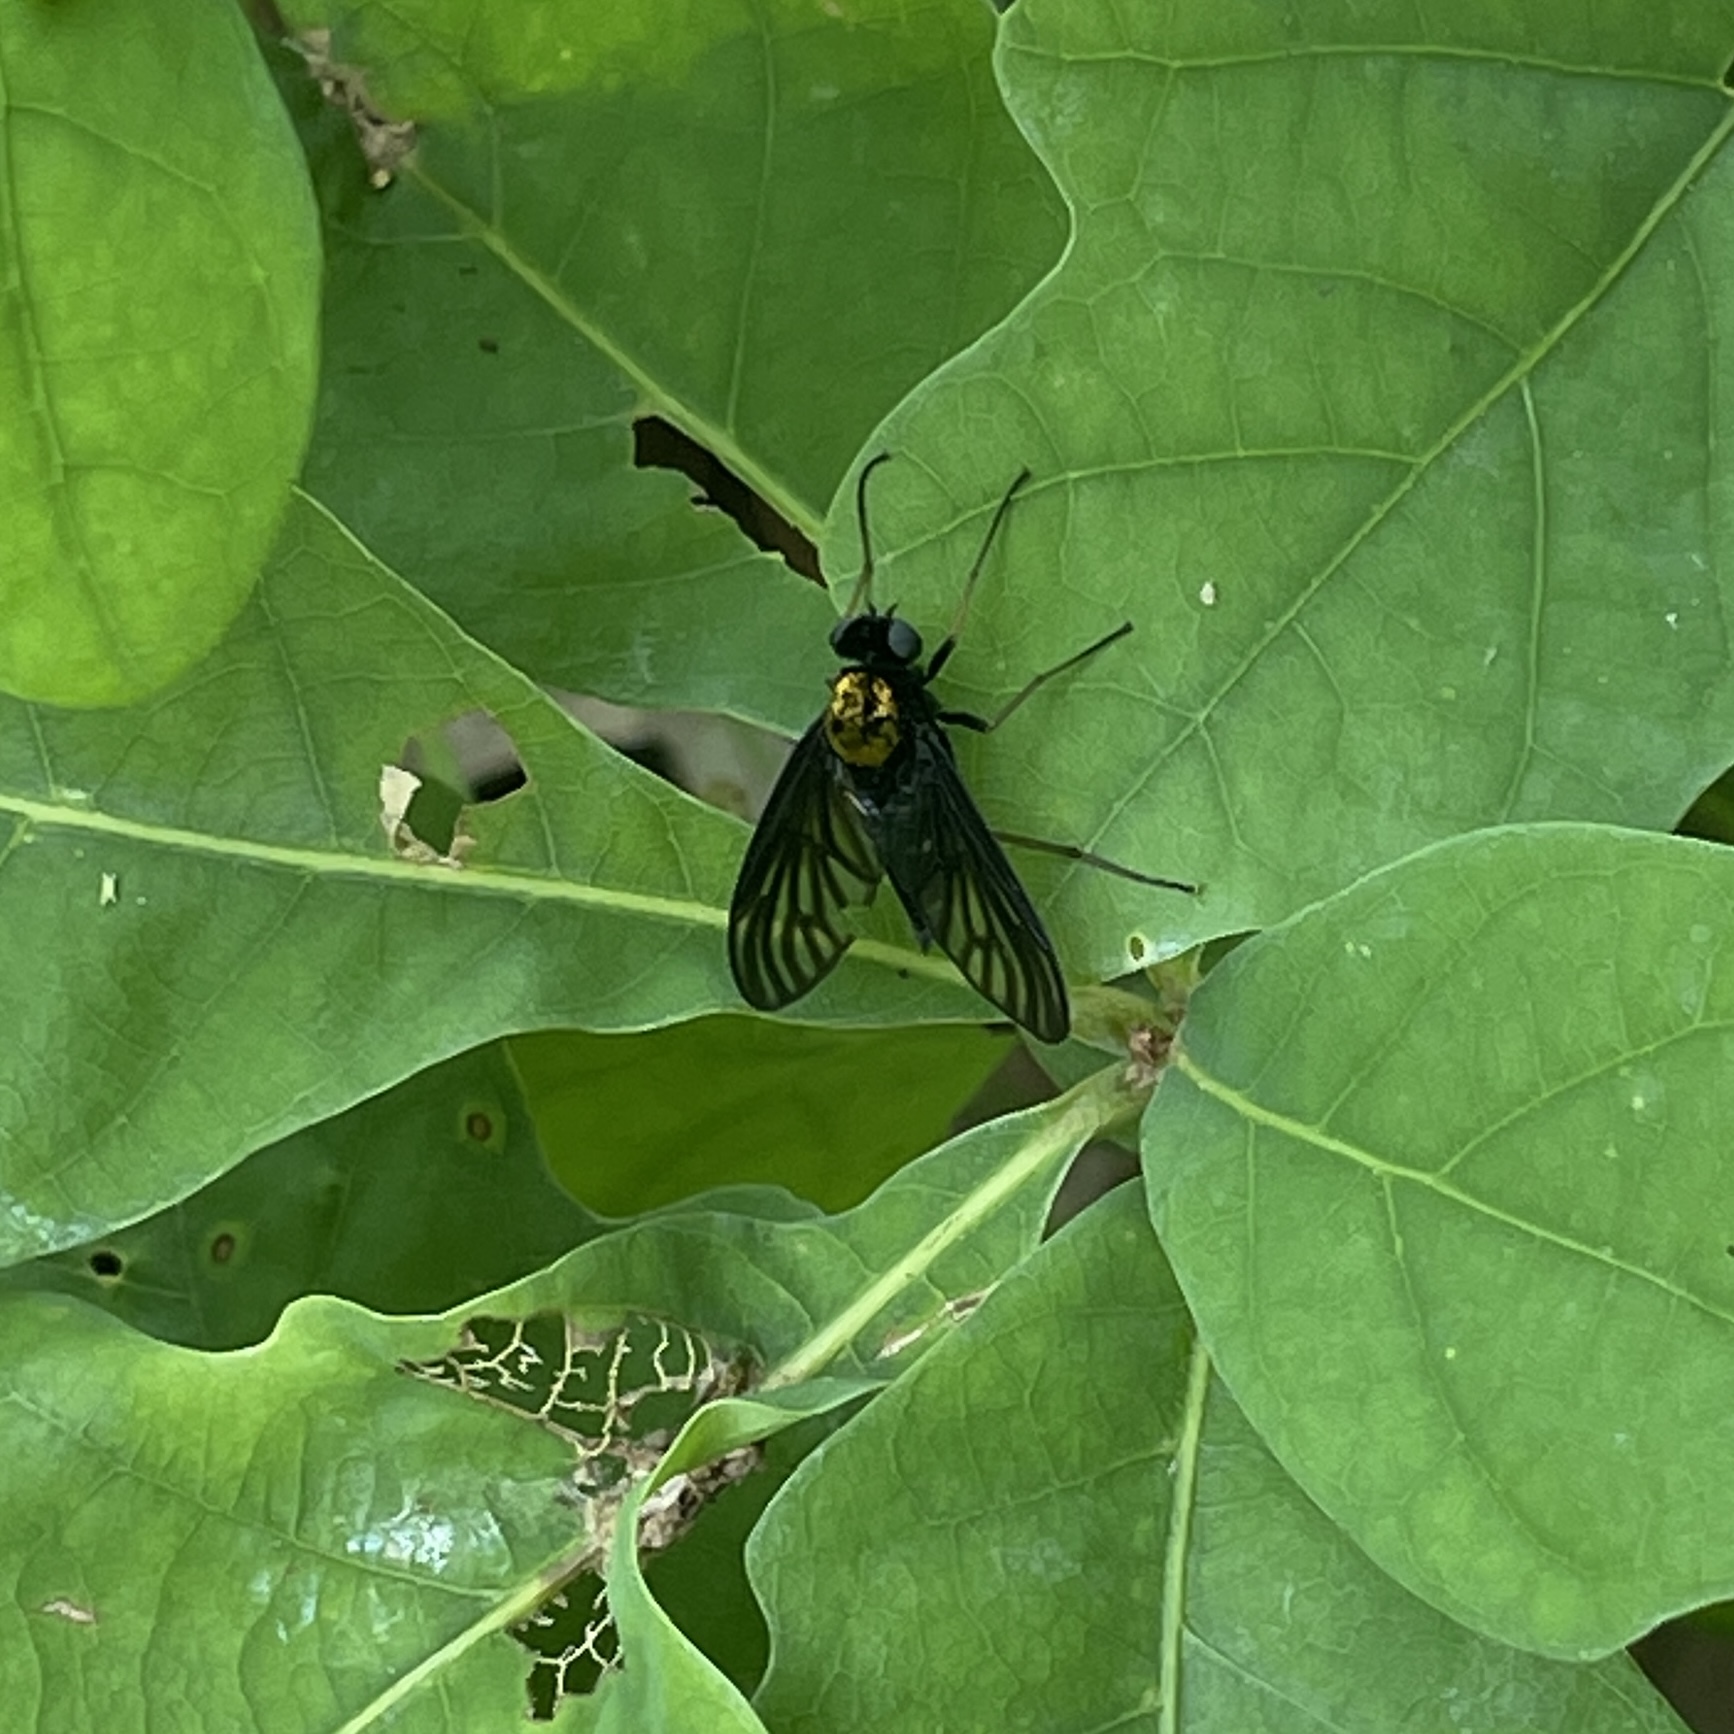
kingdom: Animalia
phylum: Arthropoda
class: Insecta
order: Diptera
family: Rhagionidae
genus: Chrysopilus
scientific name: Chrysopilus thoracicus
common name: Golden-backed snipe fly
